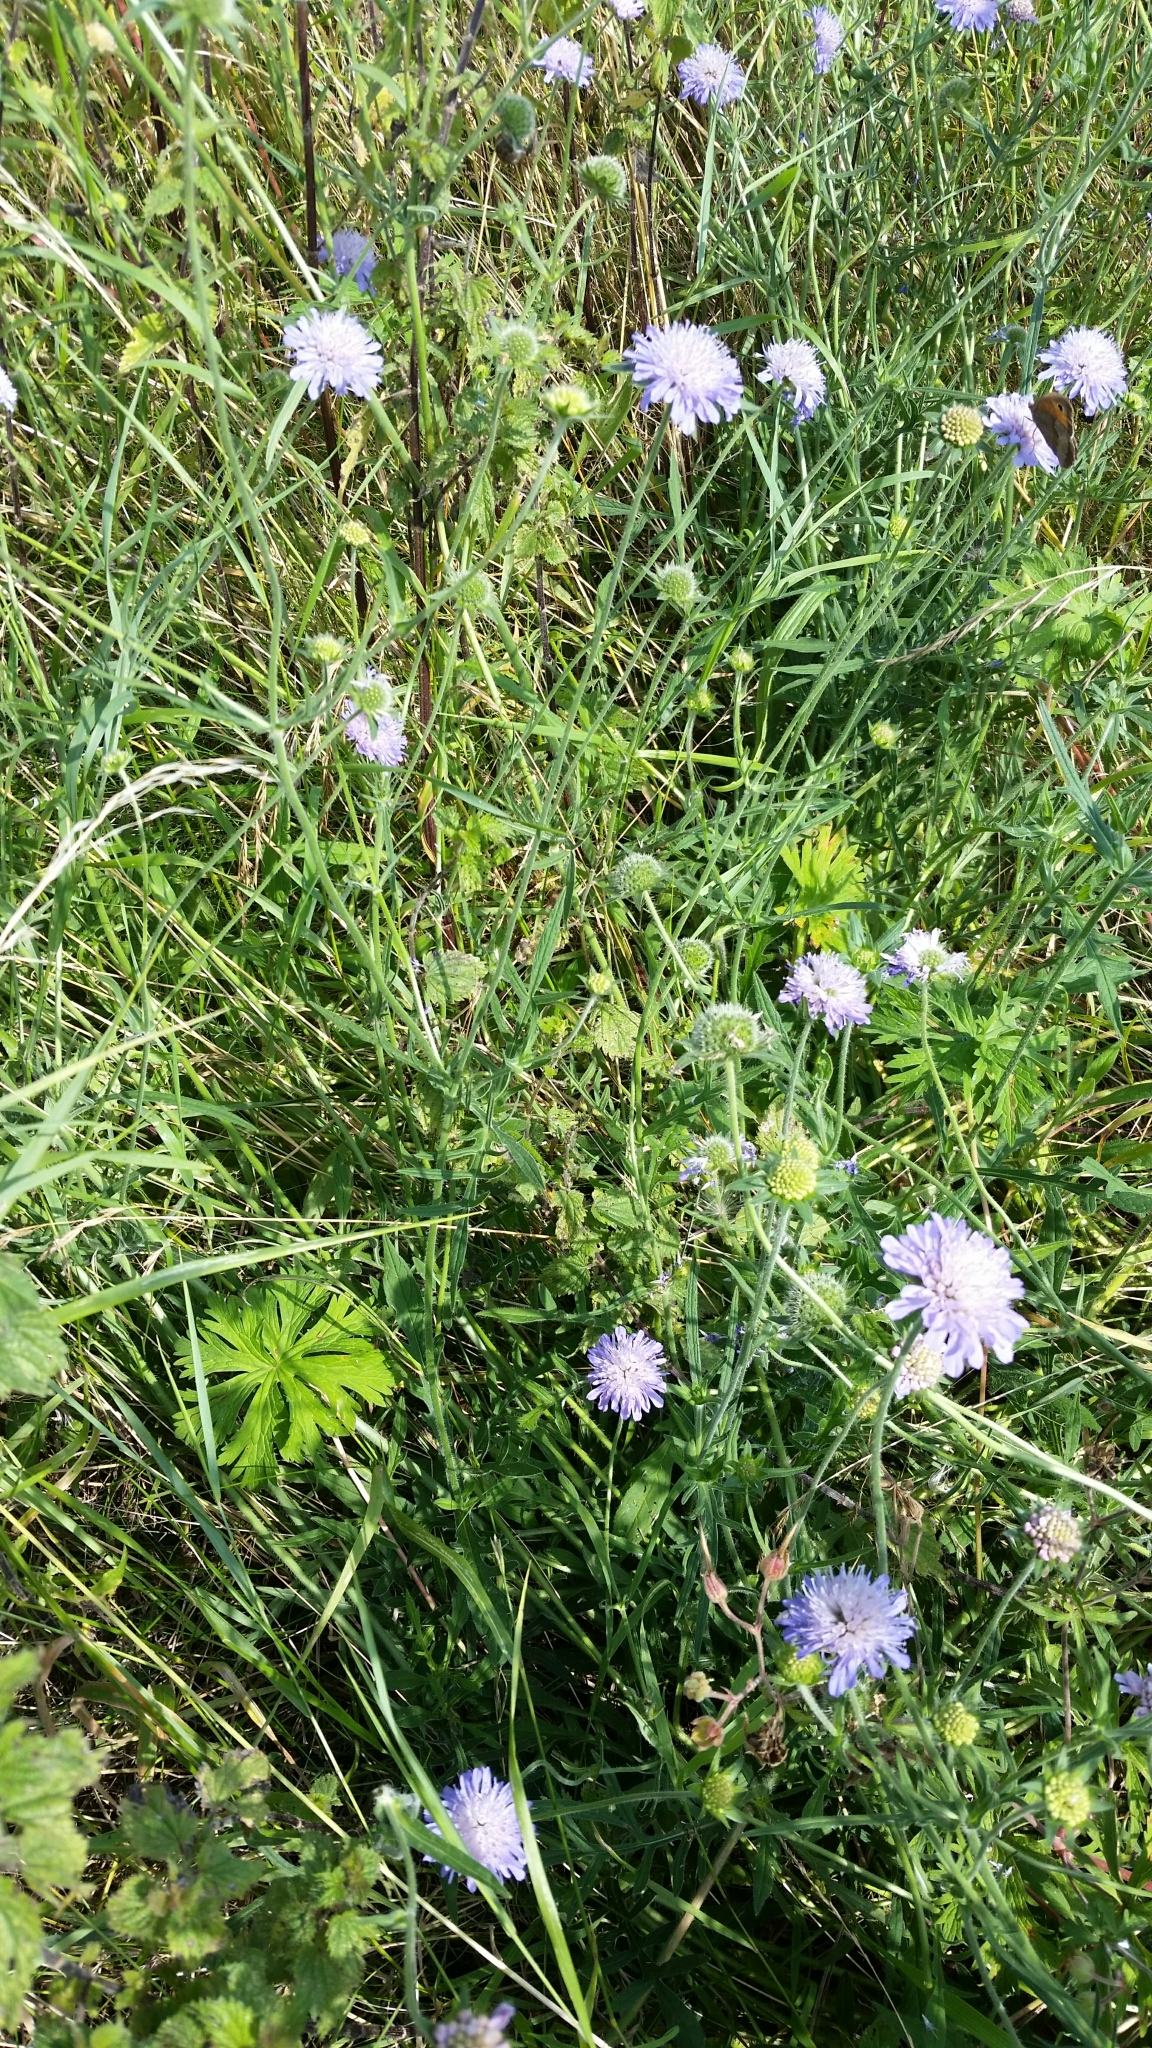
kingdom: Plantae
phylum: Tracheophyta
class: Magnoliopsida
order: Dipsacales
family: Caprifoliaceae
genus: Knautia
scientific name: Knautia arvensis
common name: Field scabiosa
